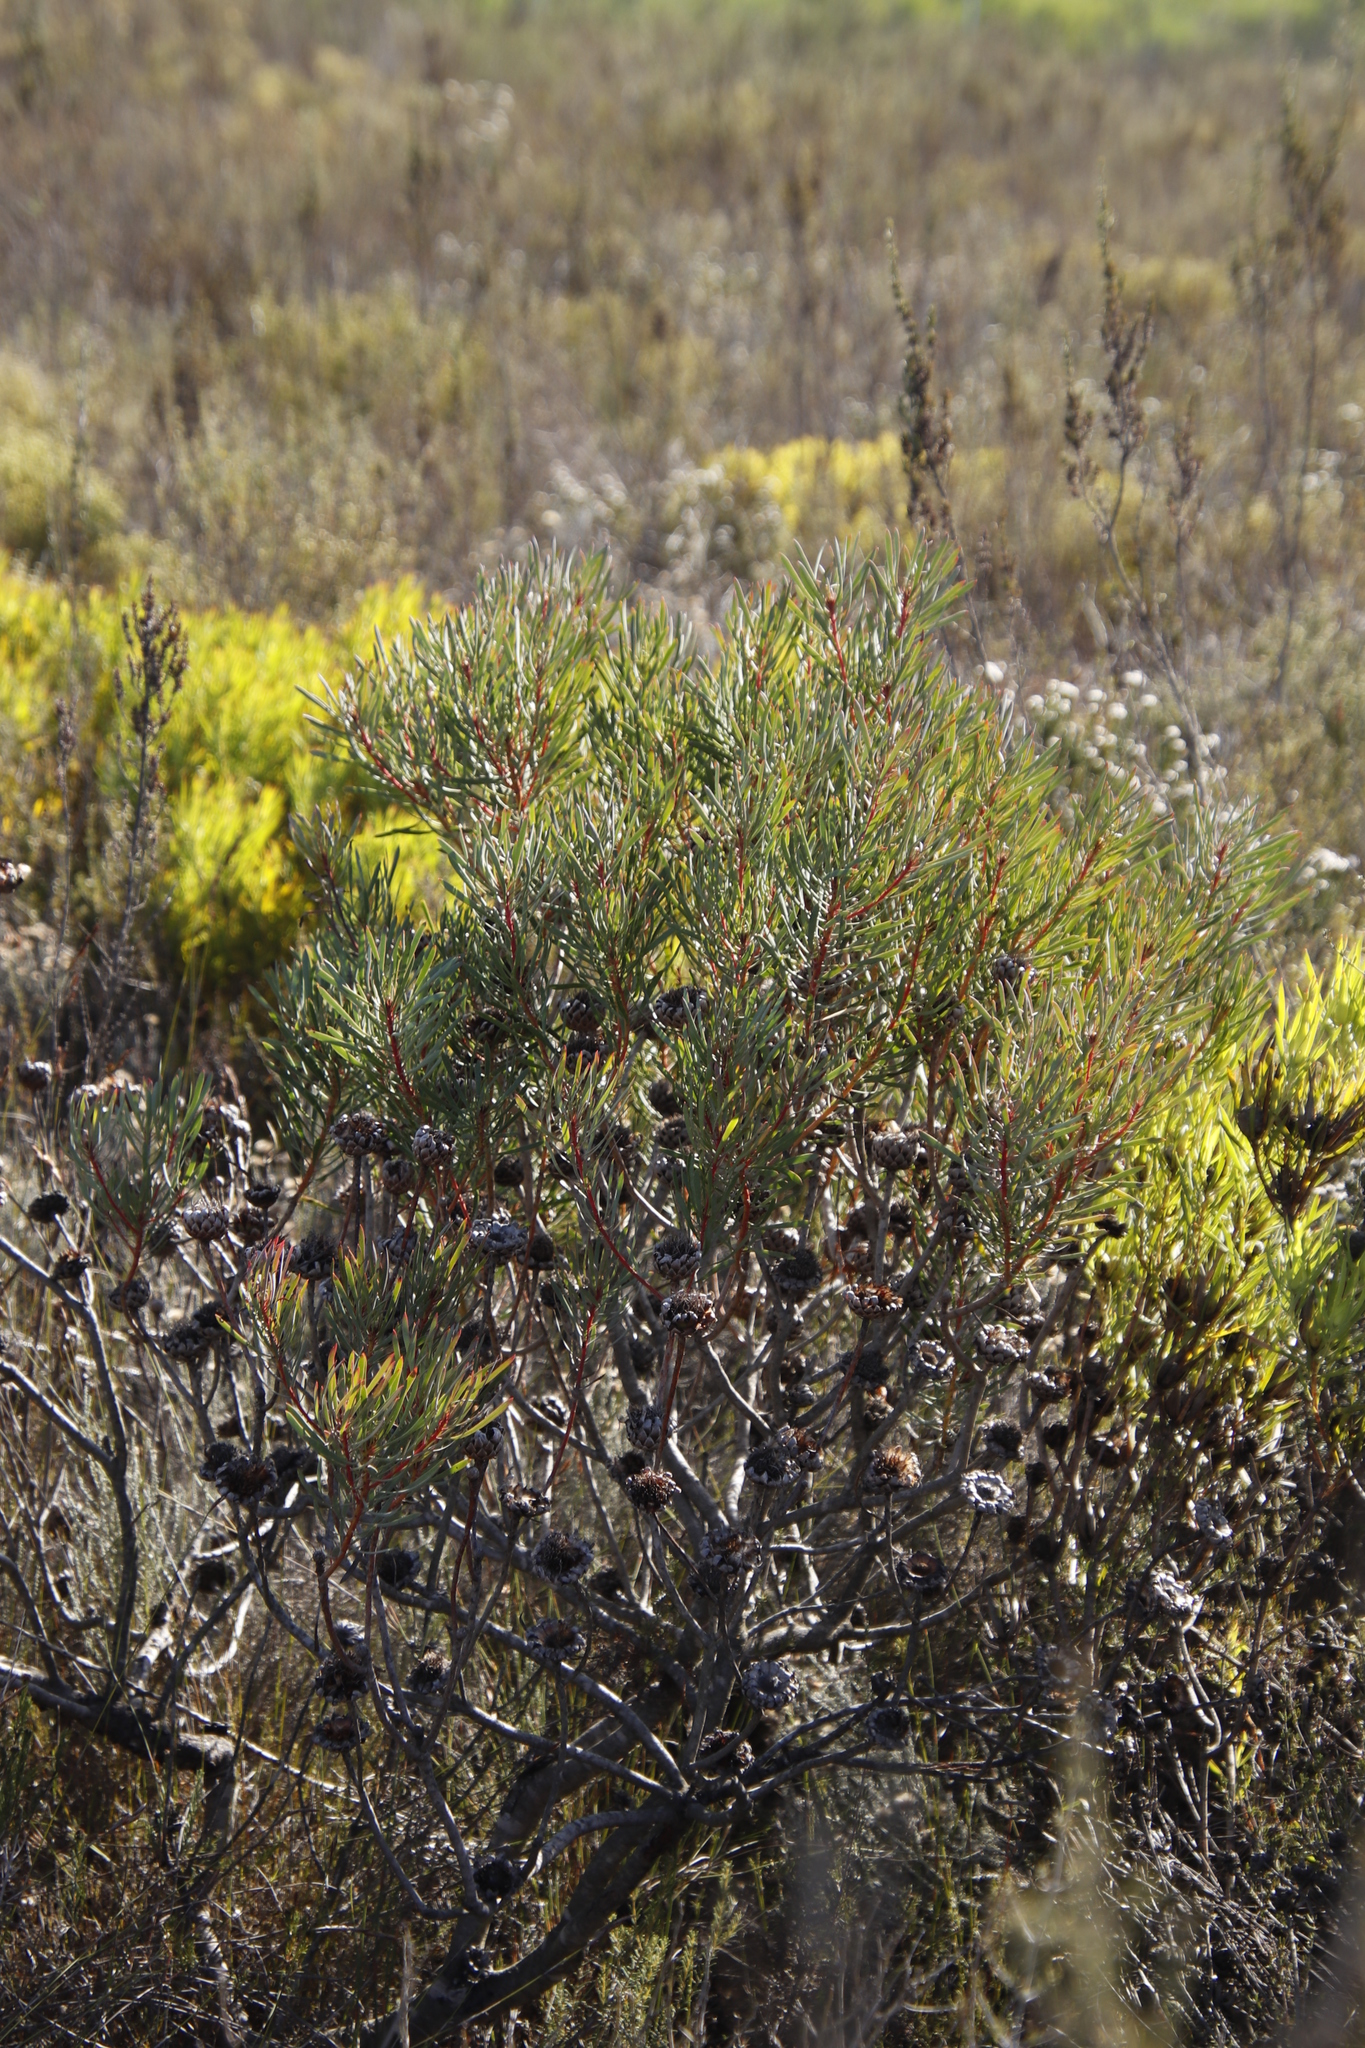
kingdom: Plantae
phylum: Tracheophyta
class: Magnoliopsida
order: Proteales
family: Proteaceae
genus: Protea
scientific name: Protea scolymocephala
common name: Thistle sugarbush
